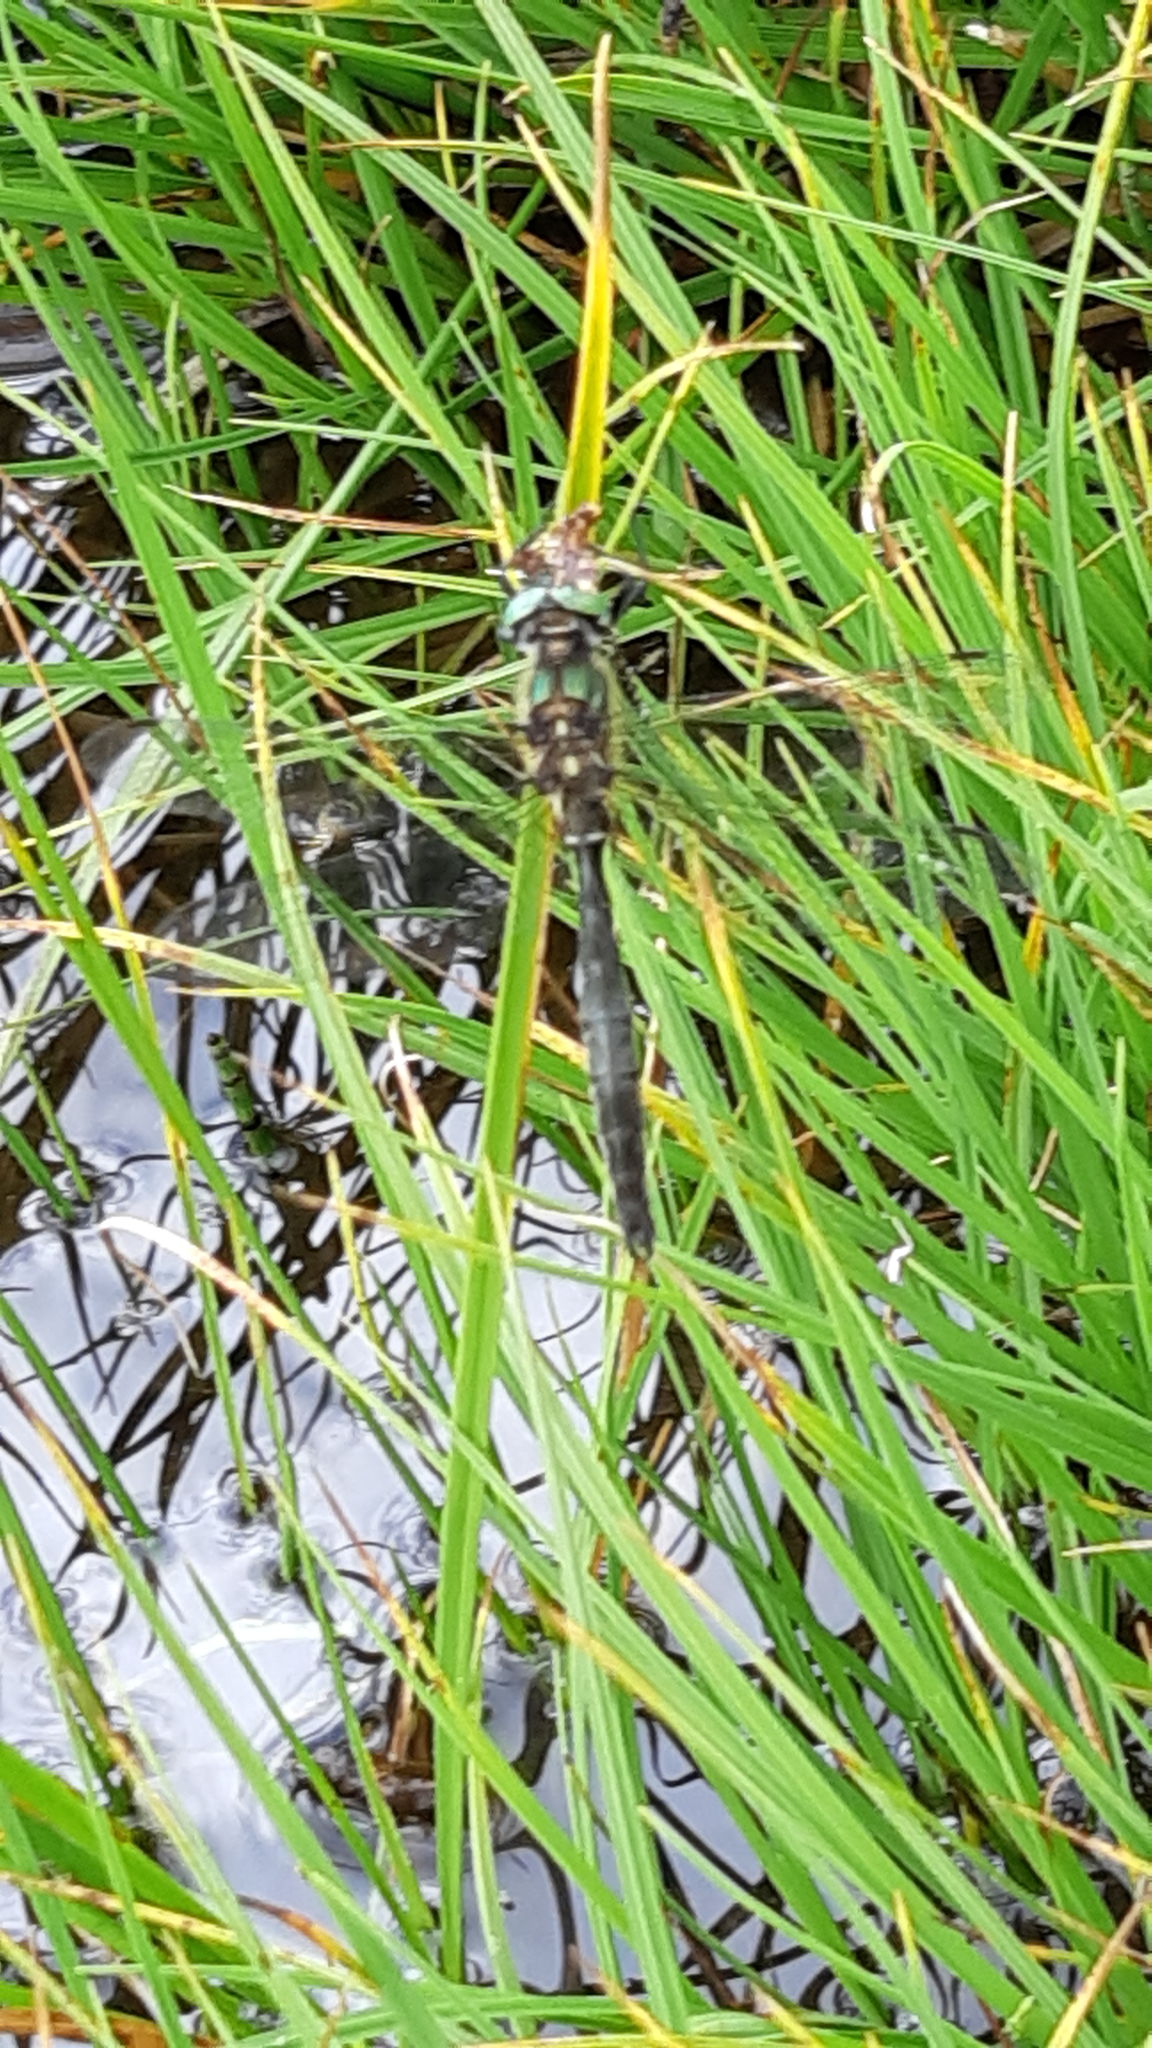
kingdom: Animalia
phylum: Arthropoda
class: Insecta
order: Odonata
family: Corduliidae
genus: Somatochlora
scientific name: Somatochlora alpestris
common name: Alpine emerald
